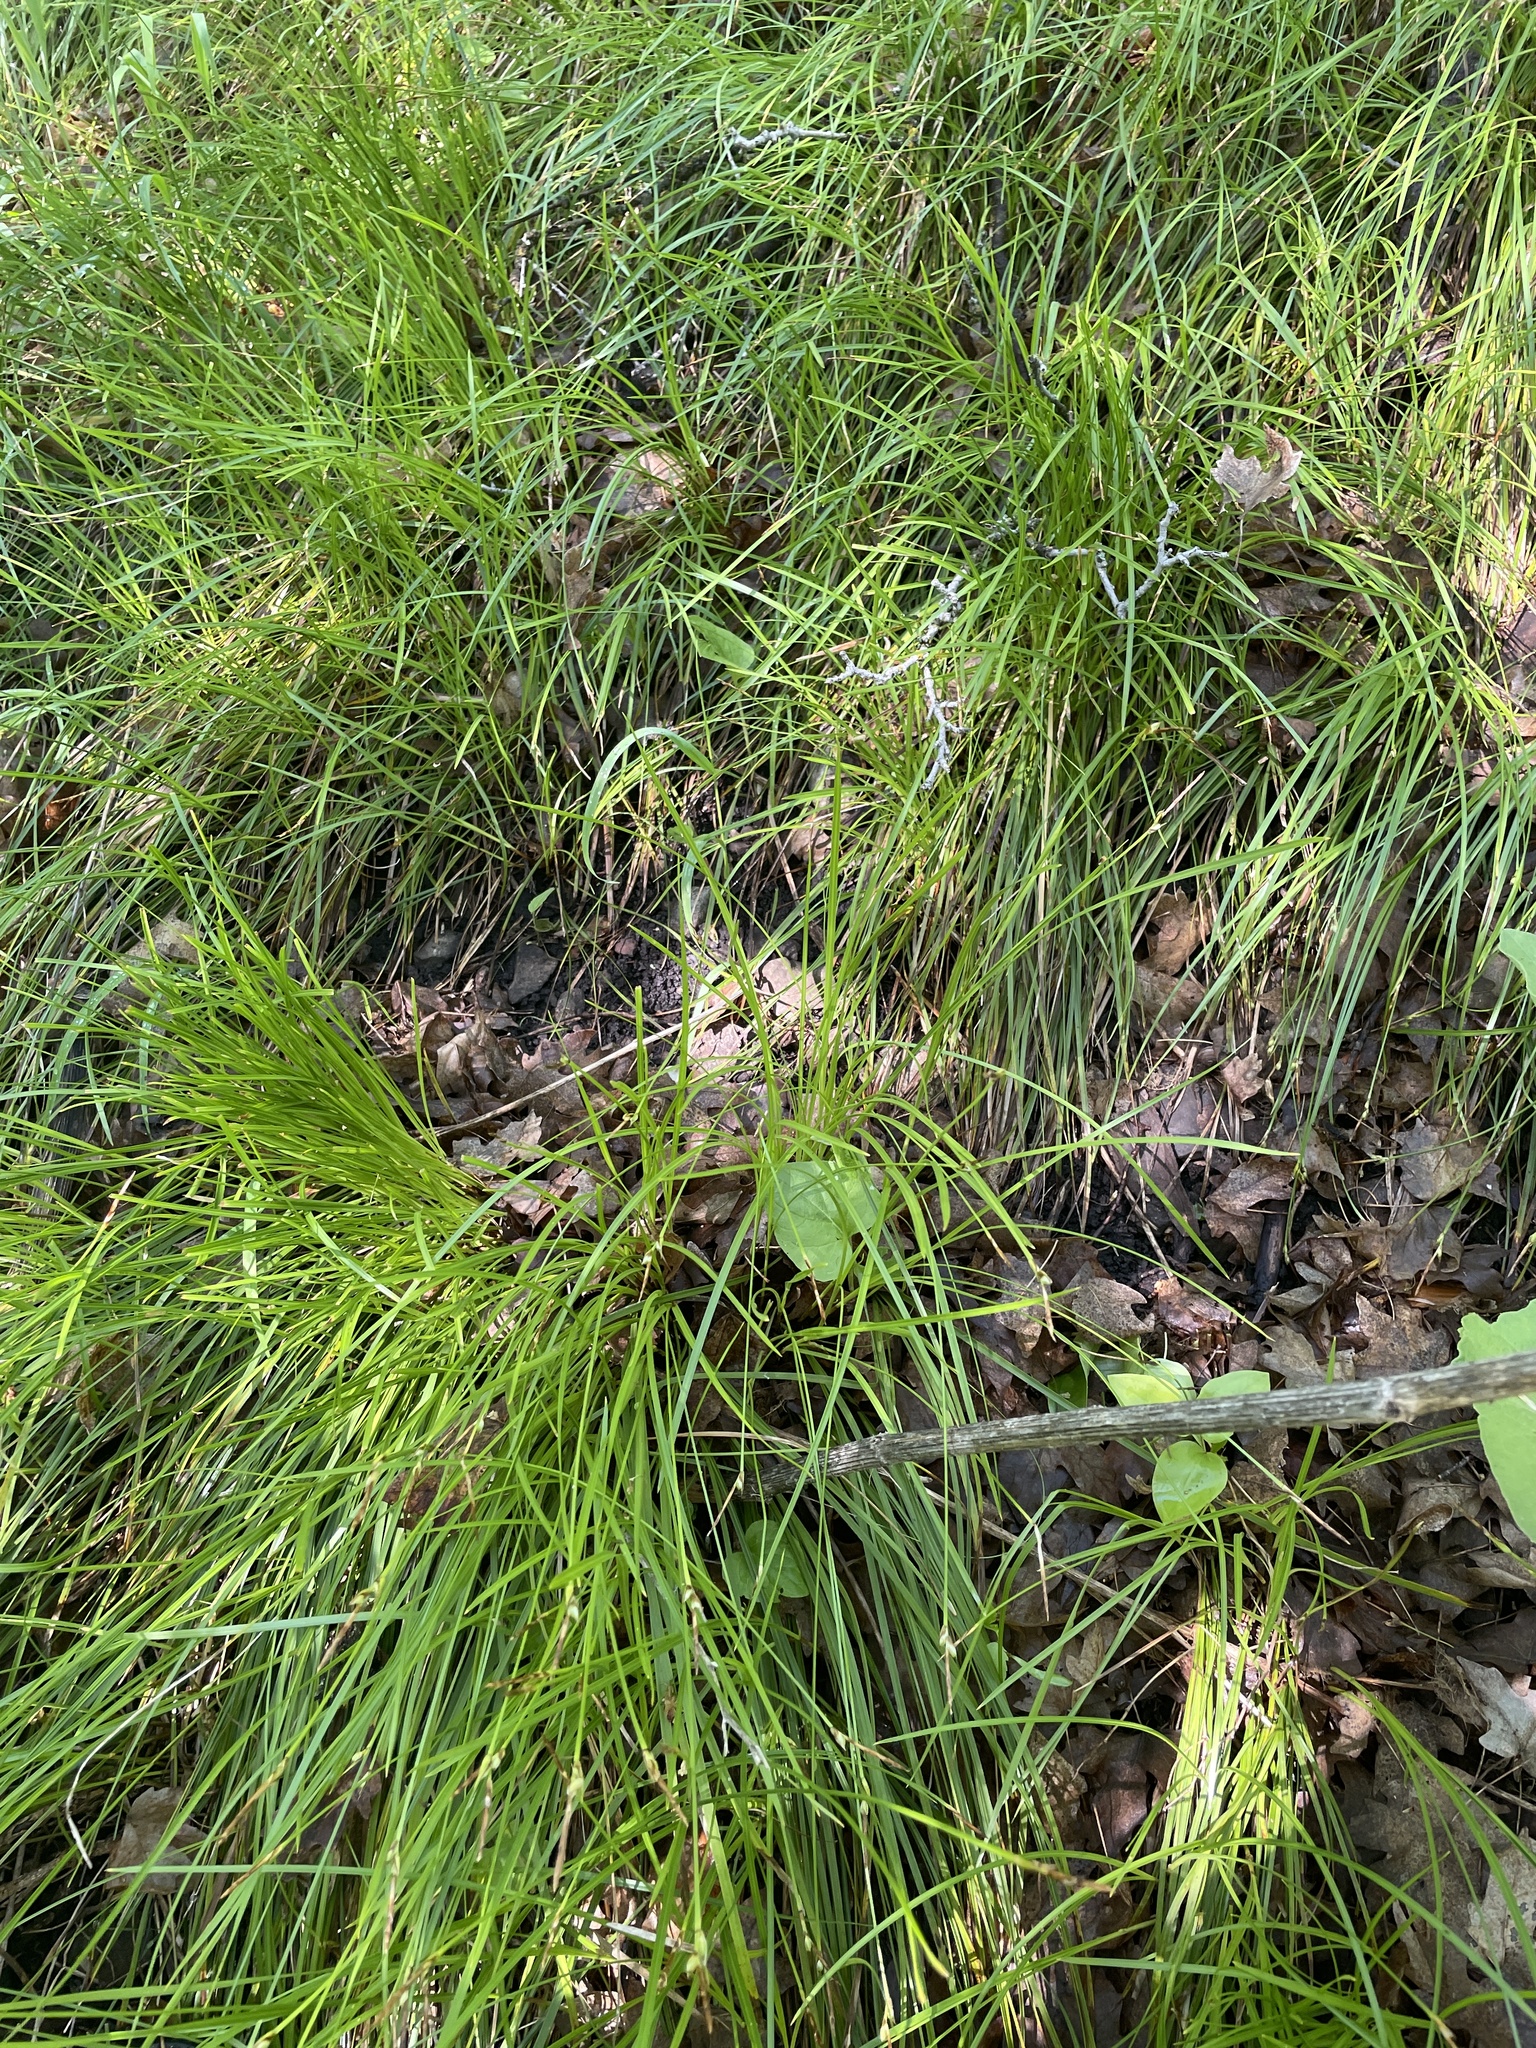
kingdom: Plantae
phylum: Tracheophyta
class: Liliopsida
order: Poales
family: Cyperaceae
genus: Carex
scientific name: Carex geyeri
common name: Elk sedge
